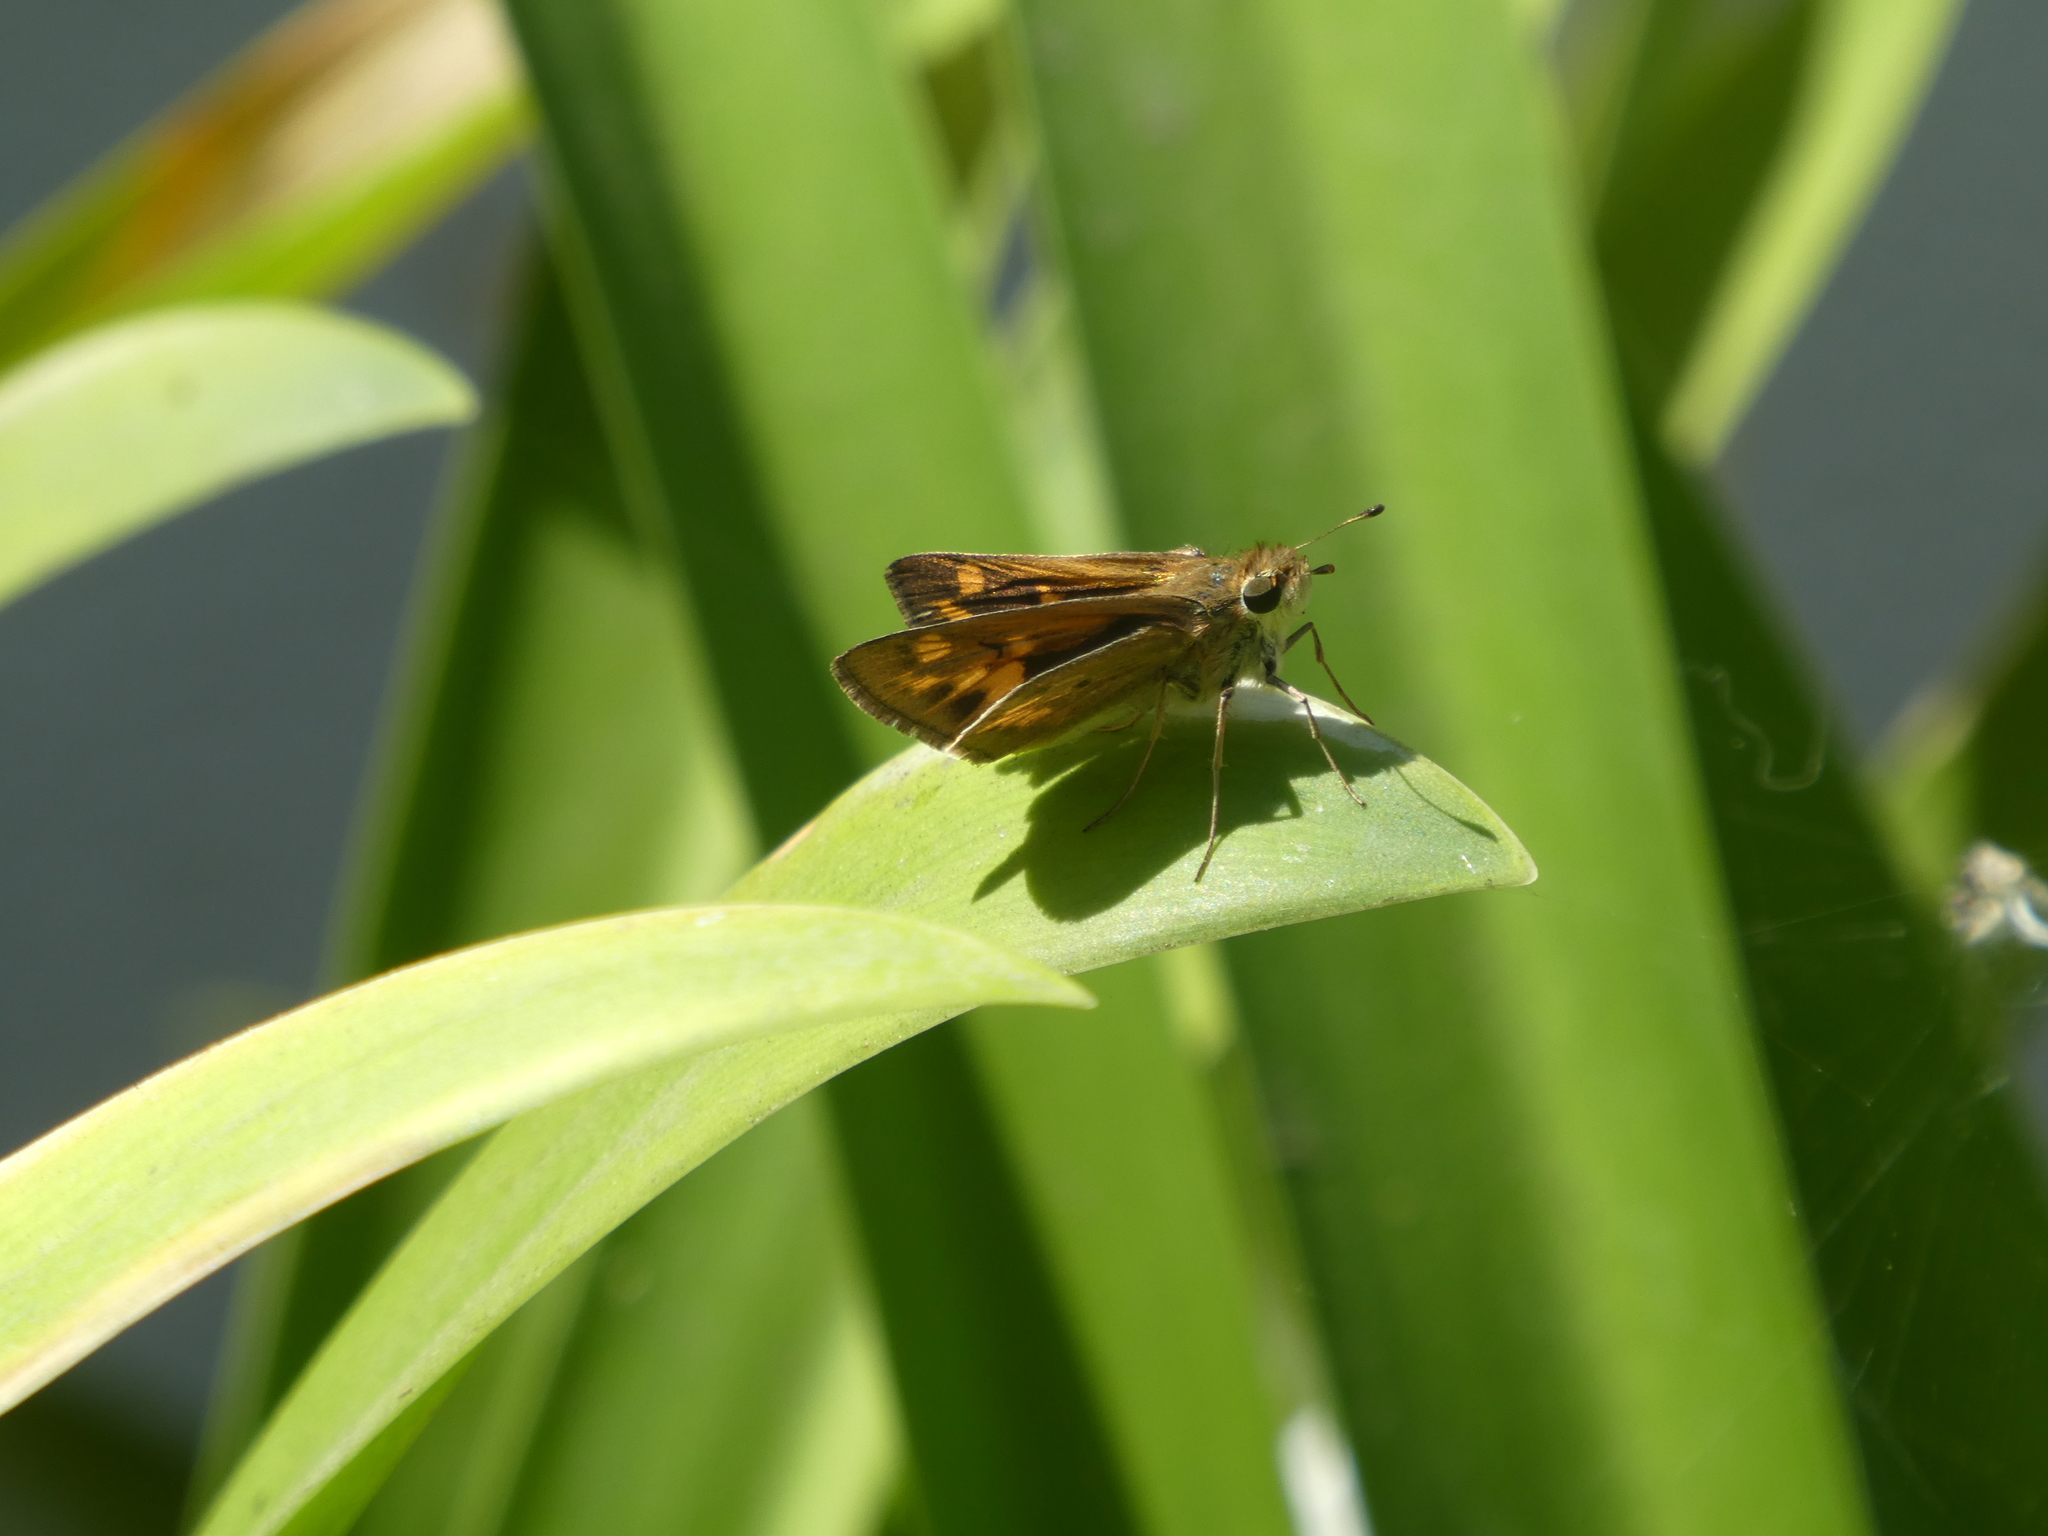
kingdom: Animalia
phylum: Arthropoda
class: Insecta
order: Lepidoptera
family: Hesperiidae
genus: Hylephila
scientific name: Hylephila phyleus
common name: Fiery skipper
